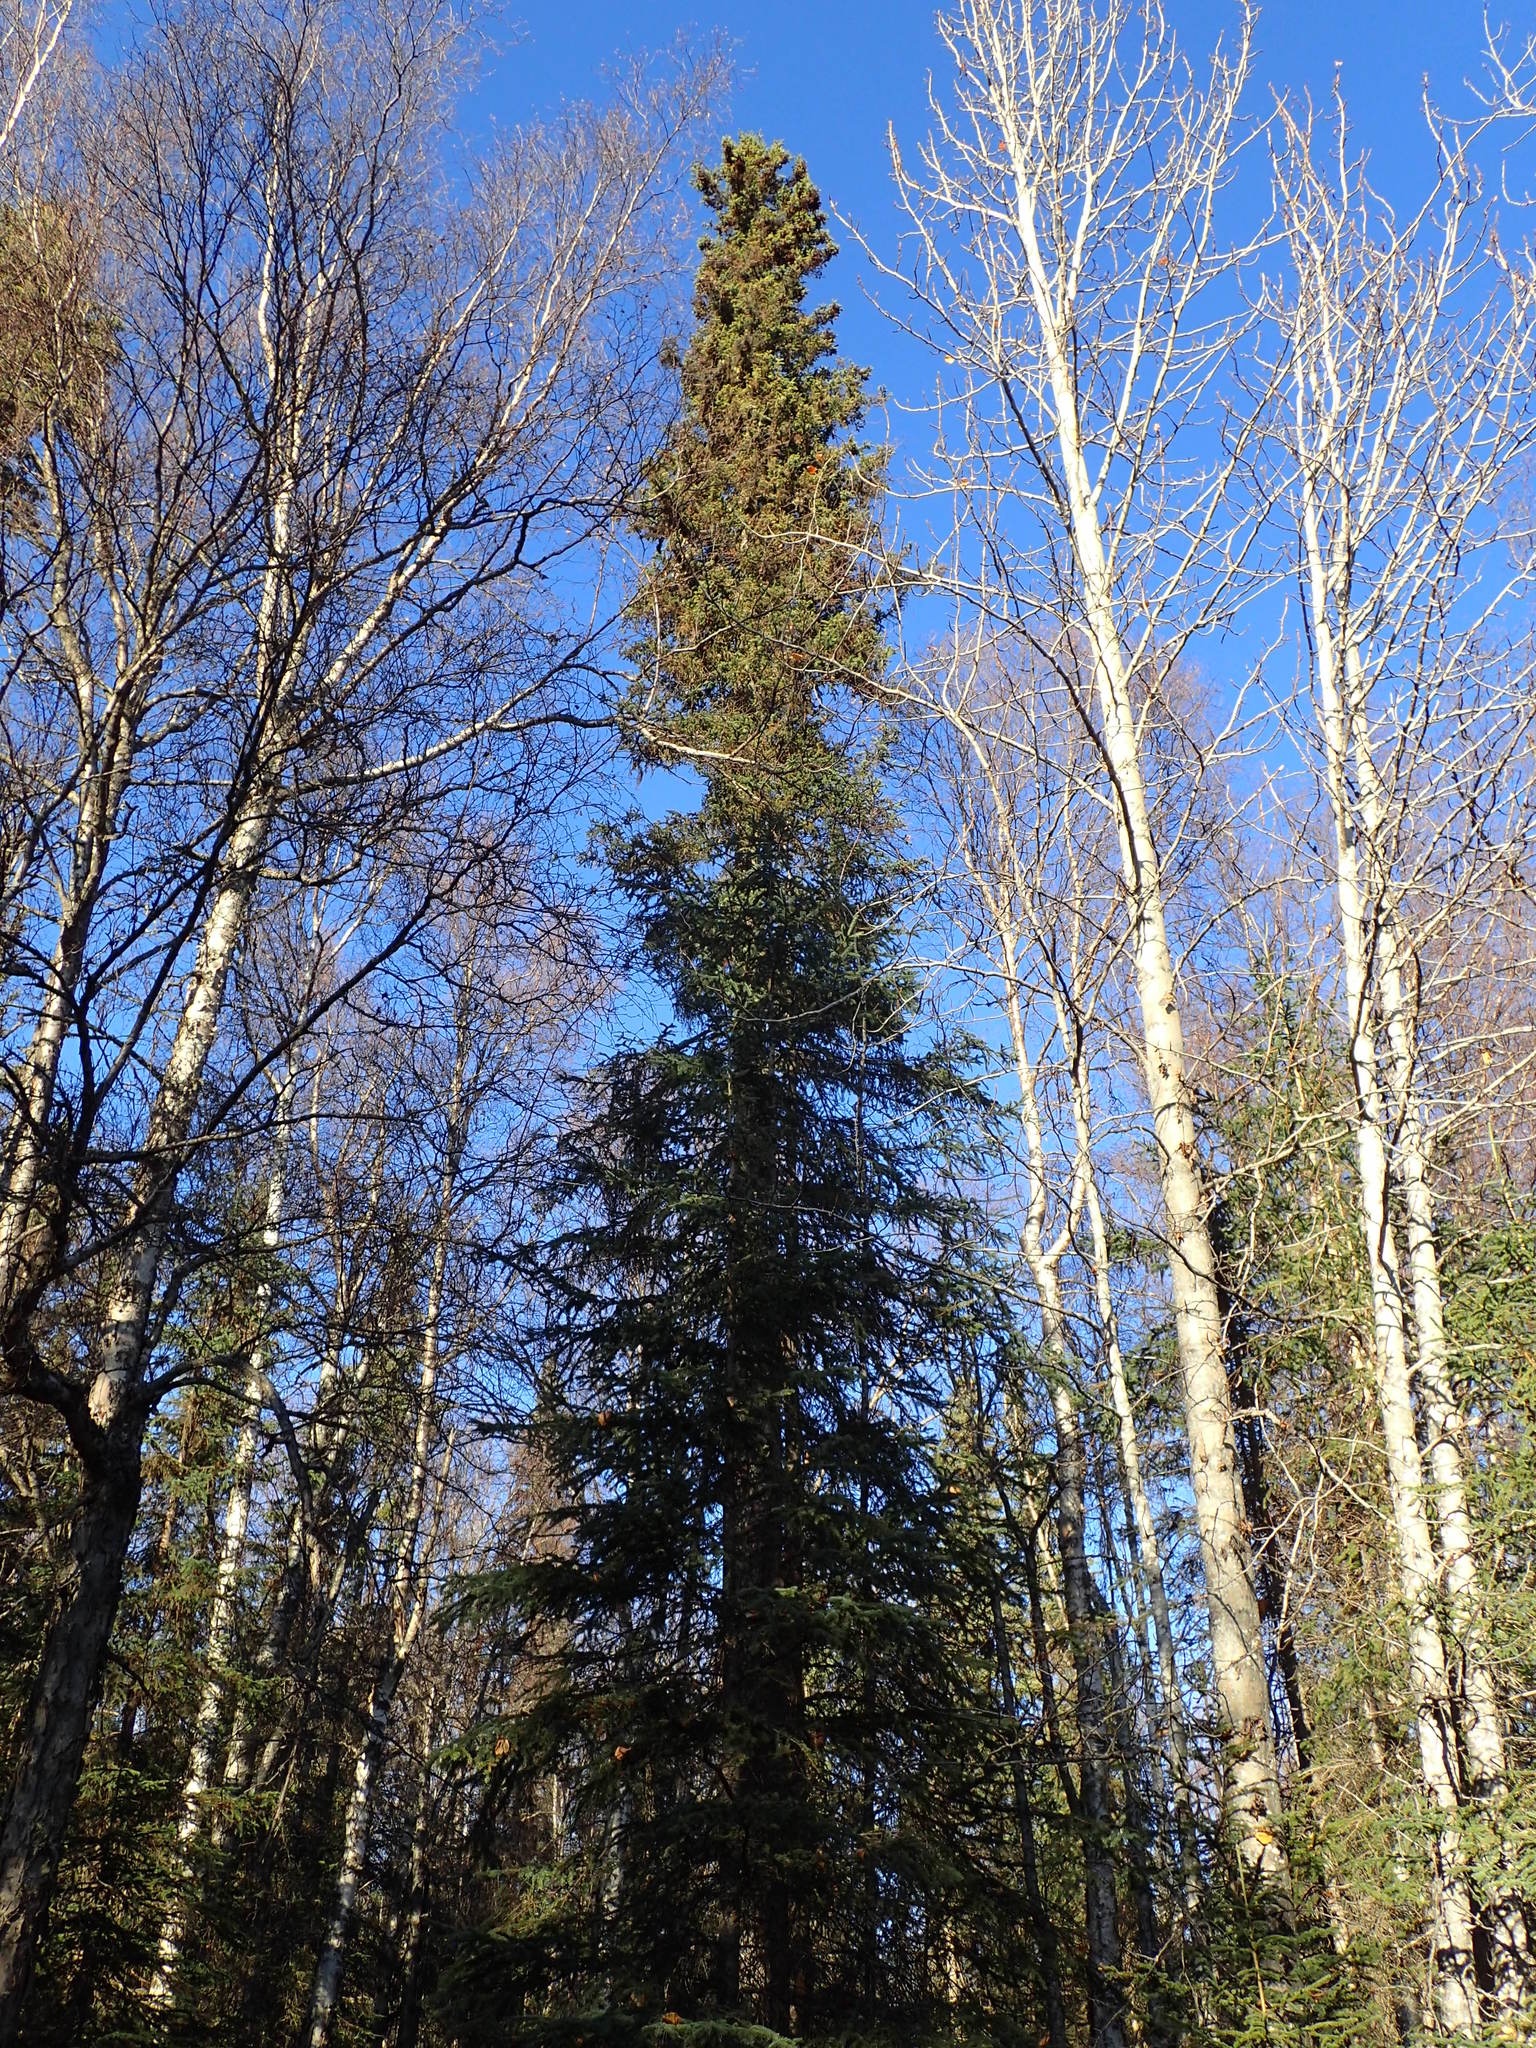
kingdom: Plantae
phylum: Tracheophyta
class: Pinopsida
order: Pinales
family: Pinaceae
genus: Picea
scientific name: Picea glauca
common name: White spruce
